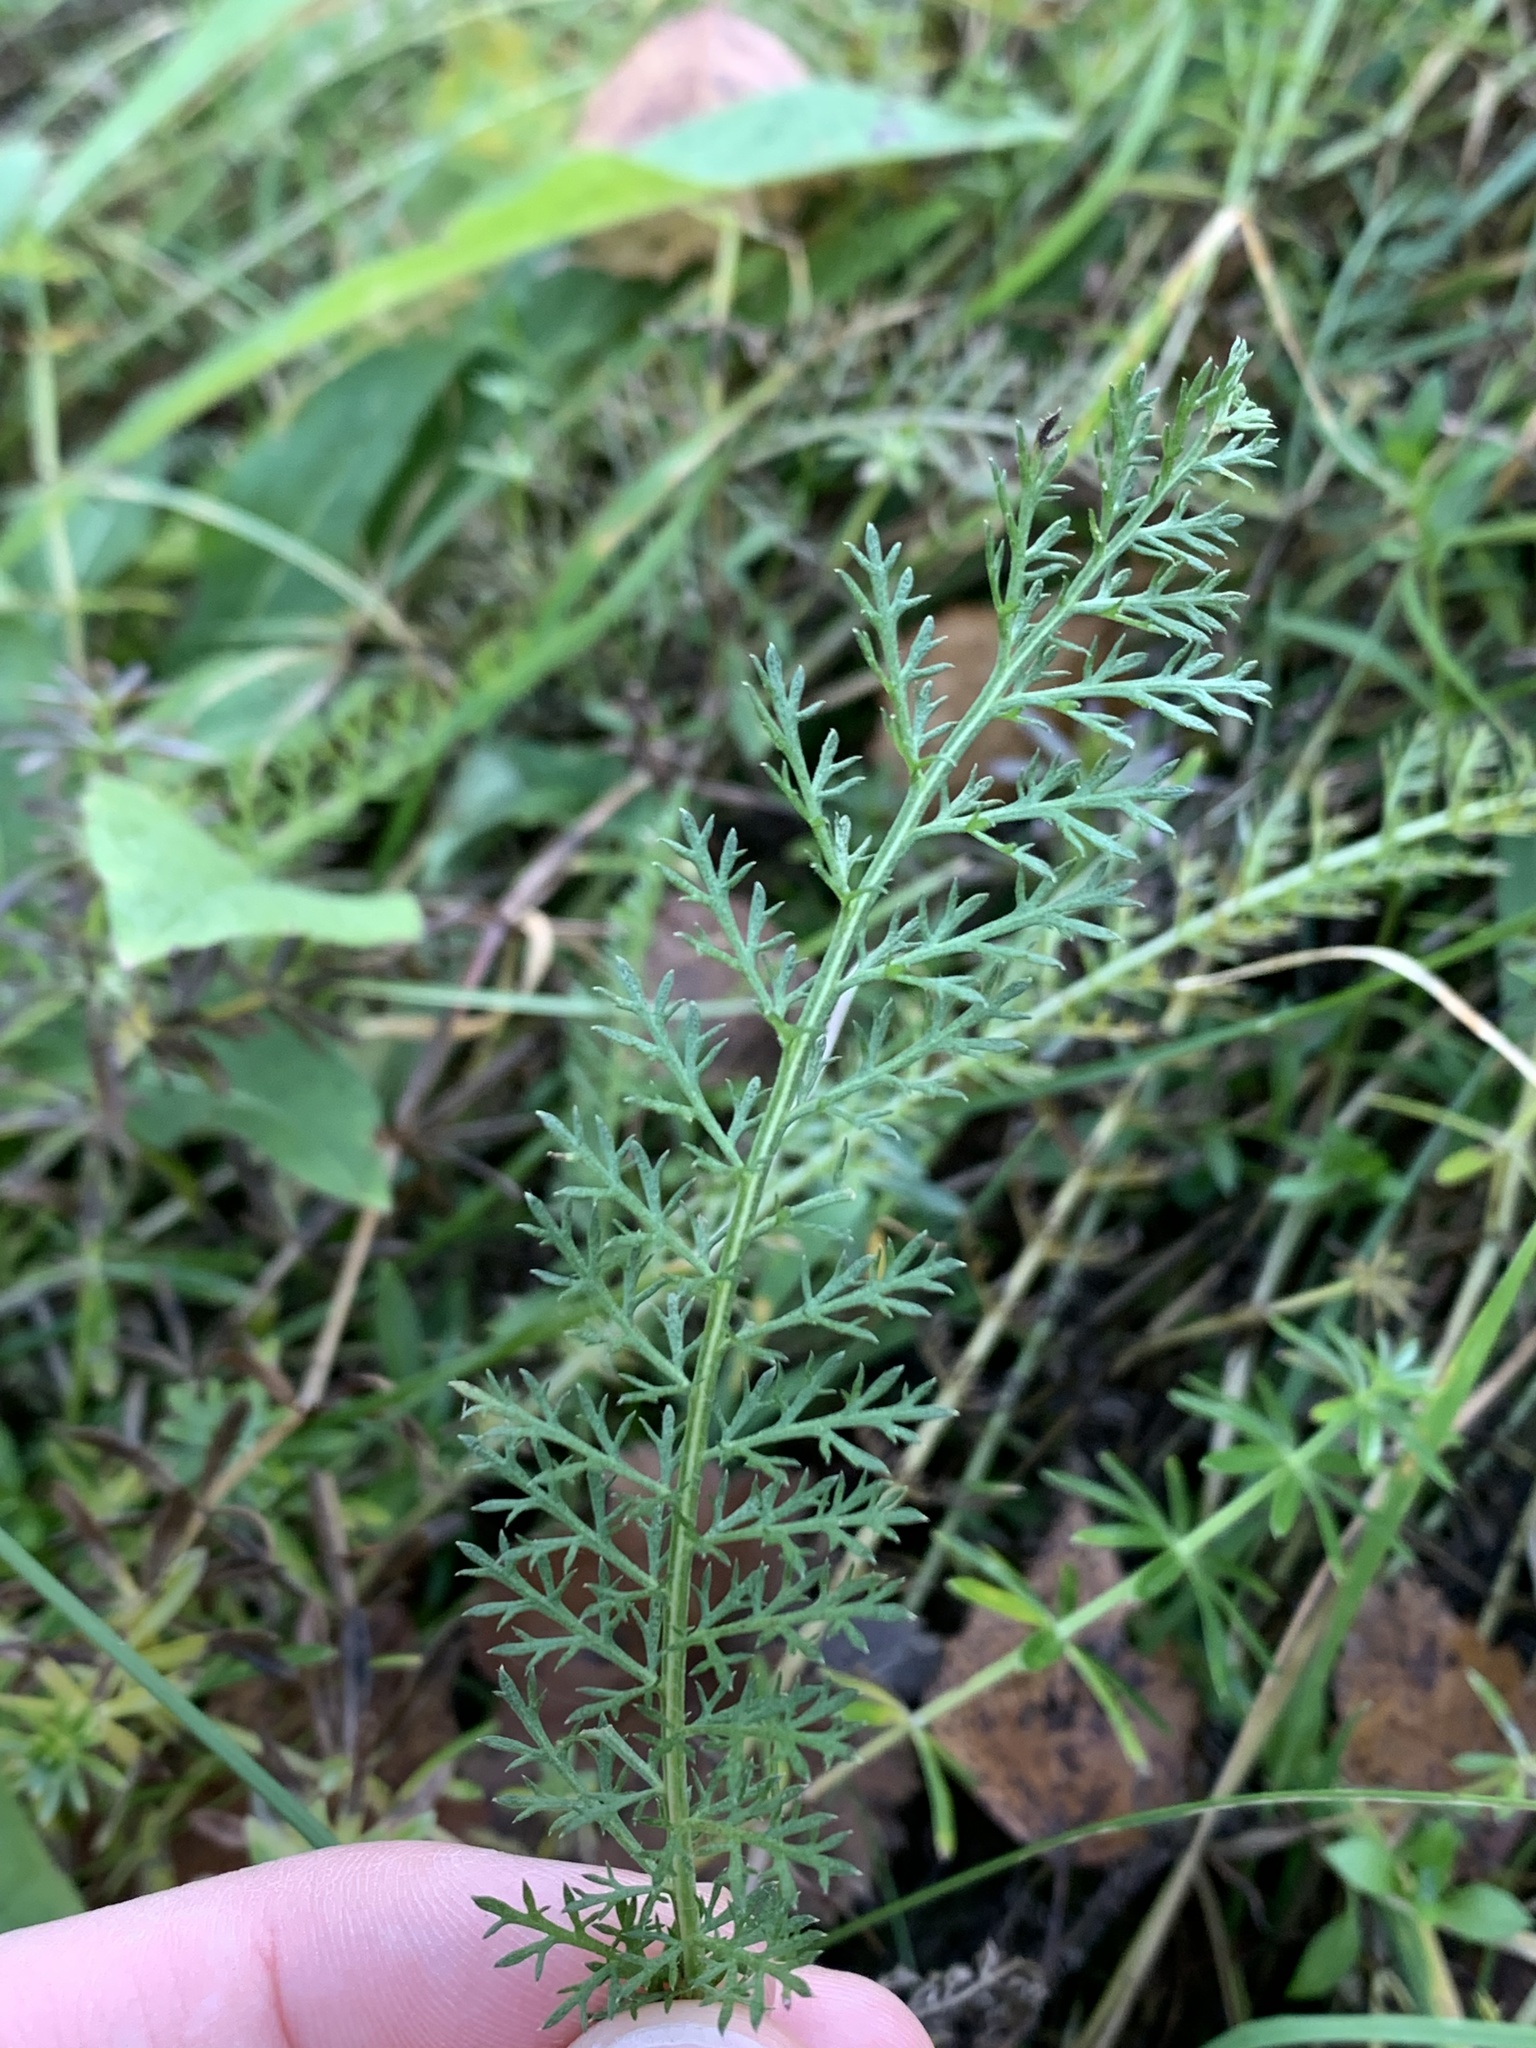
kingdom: Plantae
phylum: Tracheophyta
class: Magnoliopsida
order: Asterales
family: Asteraceae
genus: Achillea
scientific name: Achillea millefolium
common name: Yarrow
